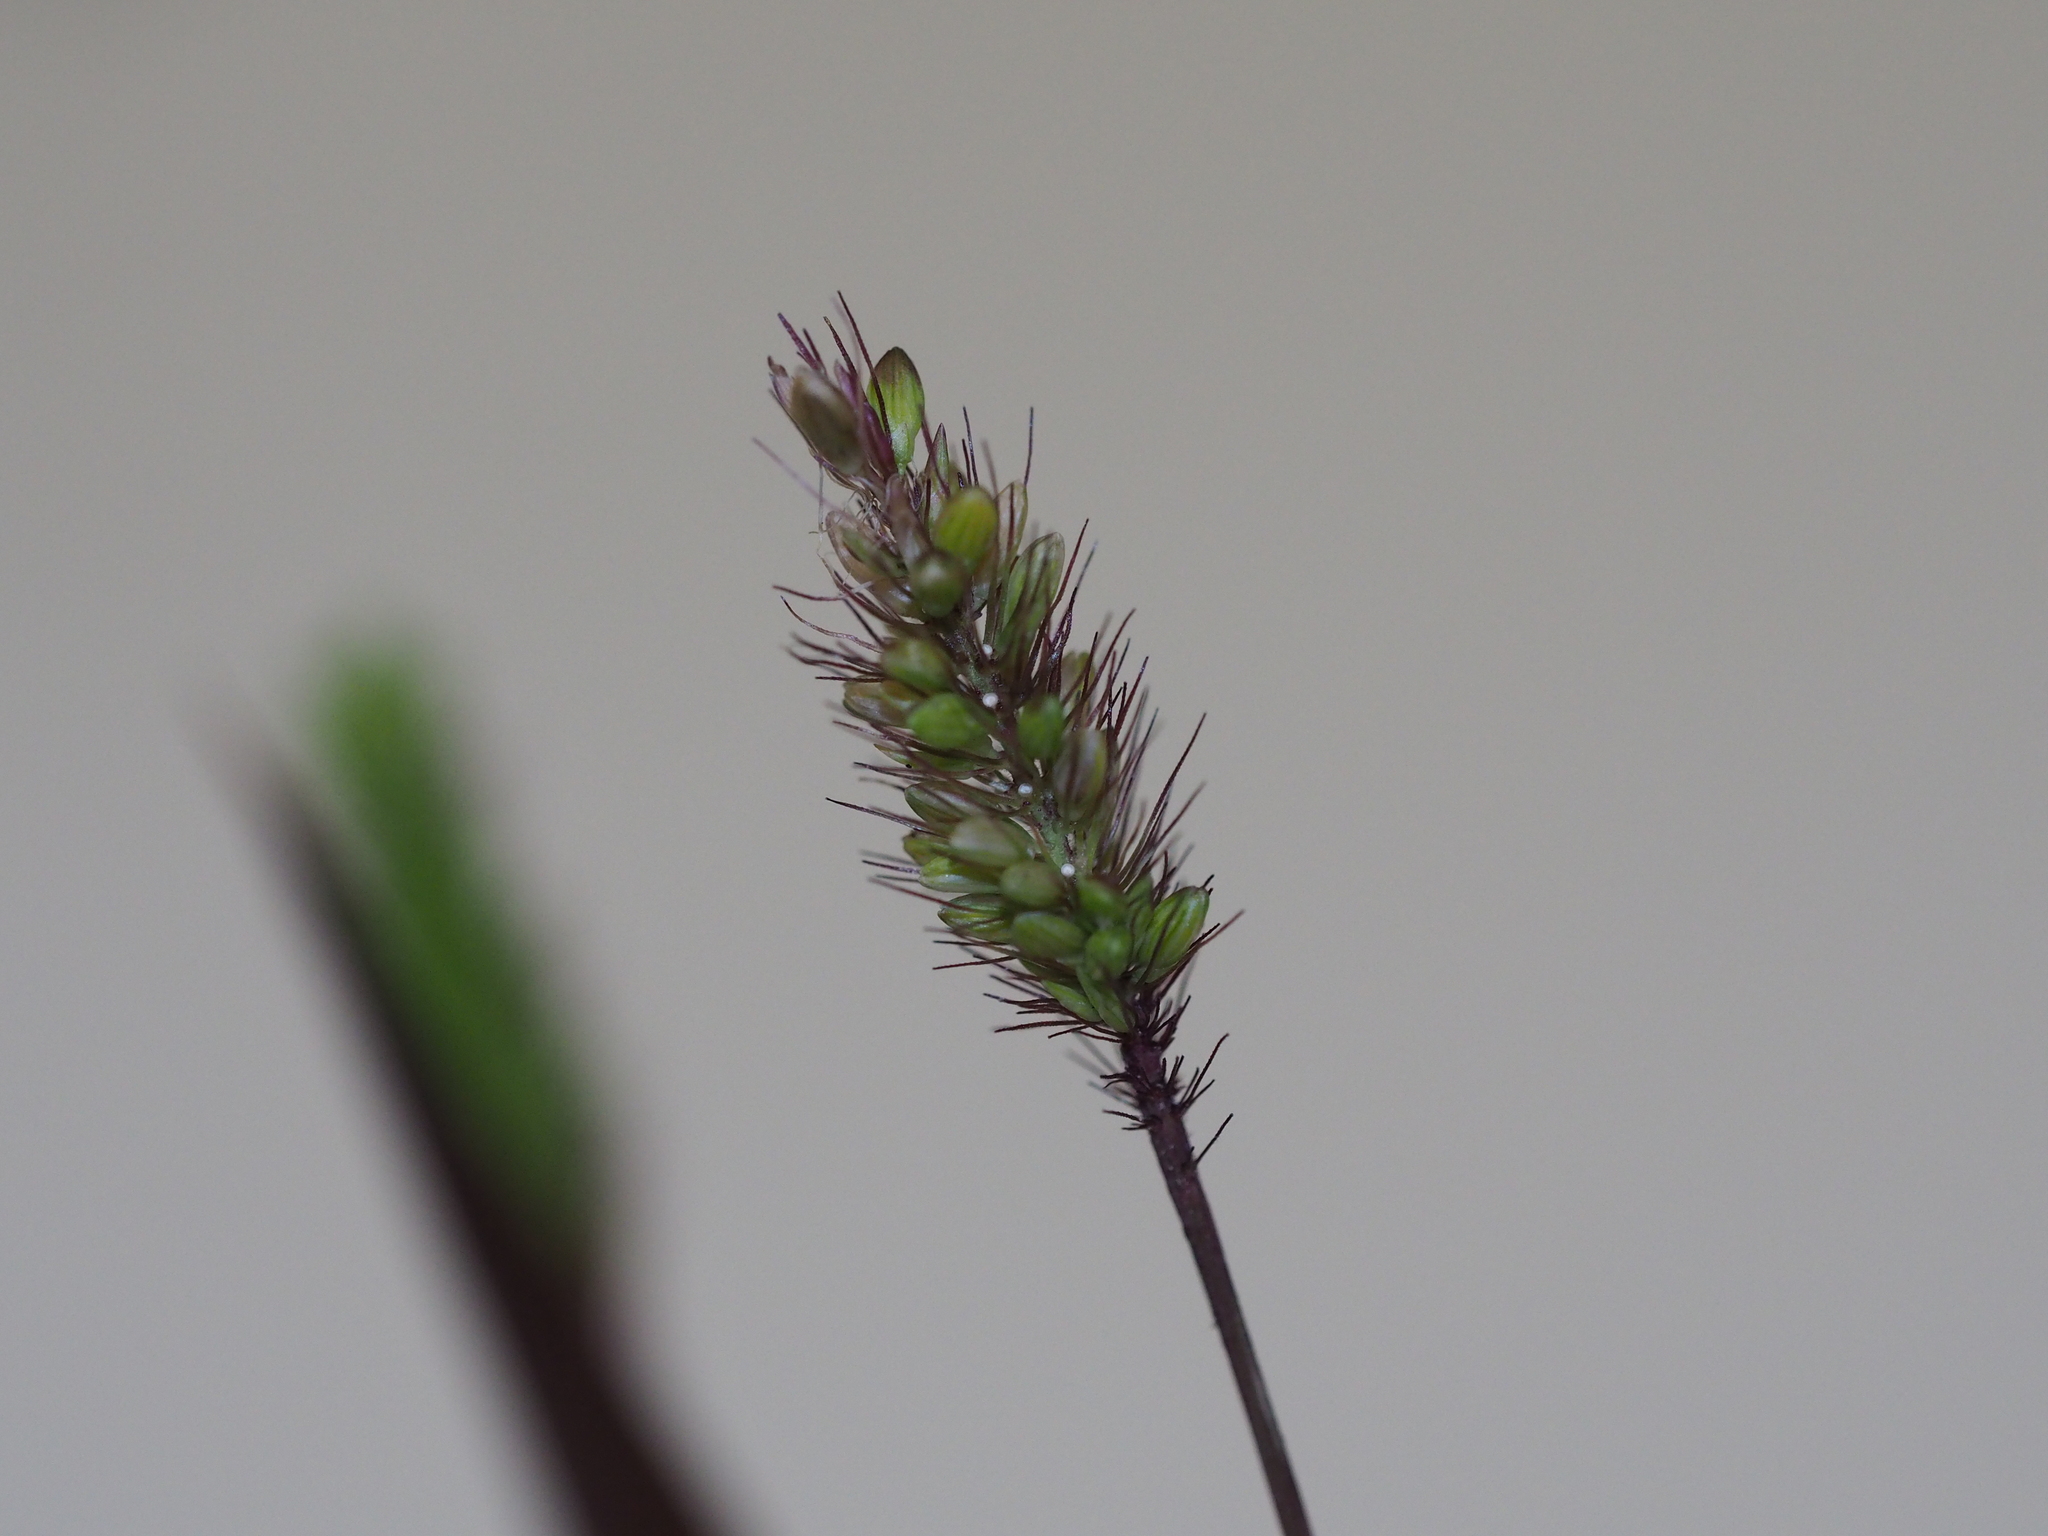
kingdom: Plantae
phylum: Tracheophyta
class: Liliopsida
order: Poales
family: Poaceae
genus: Setaria
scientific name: Setaria viridis
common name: Green bristlegrass
